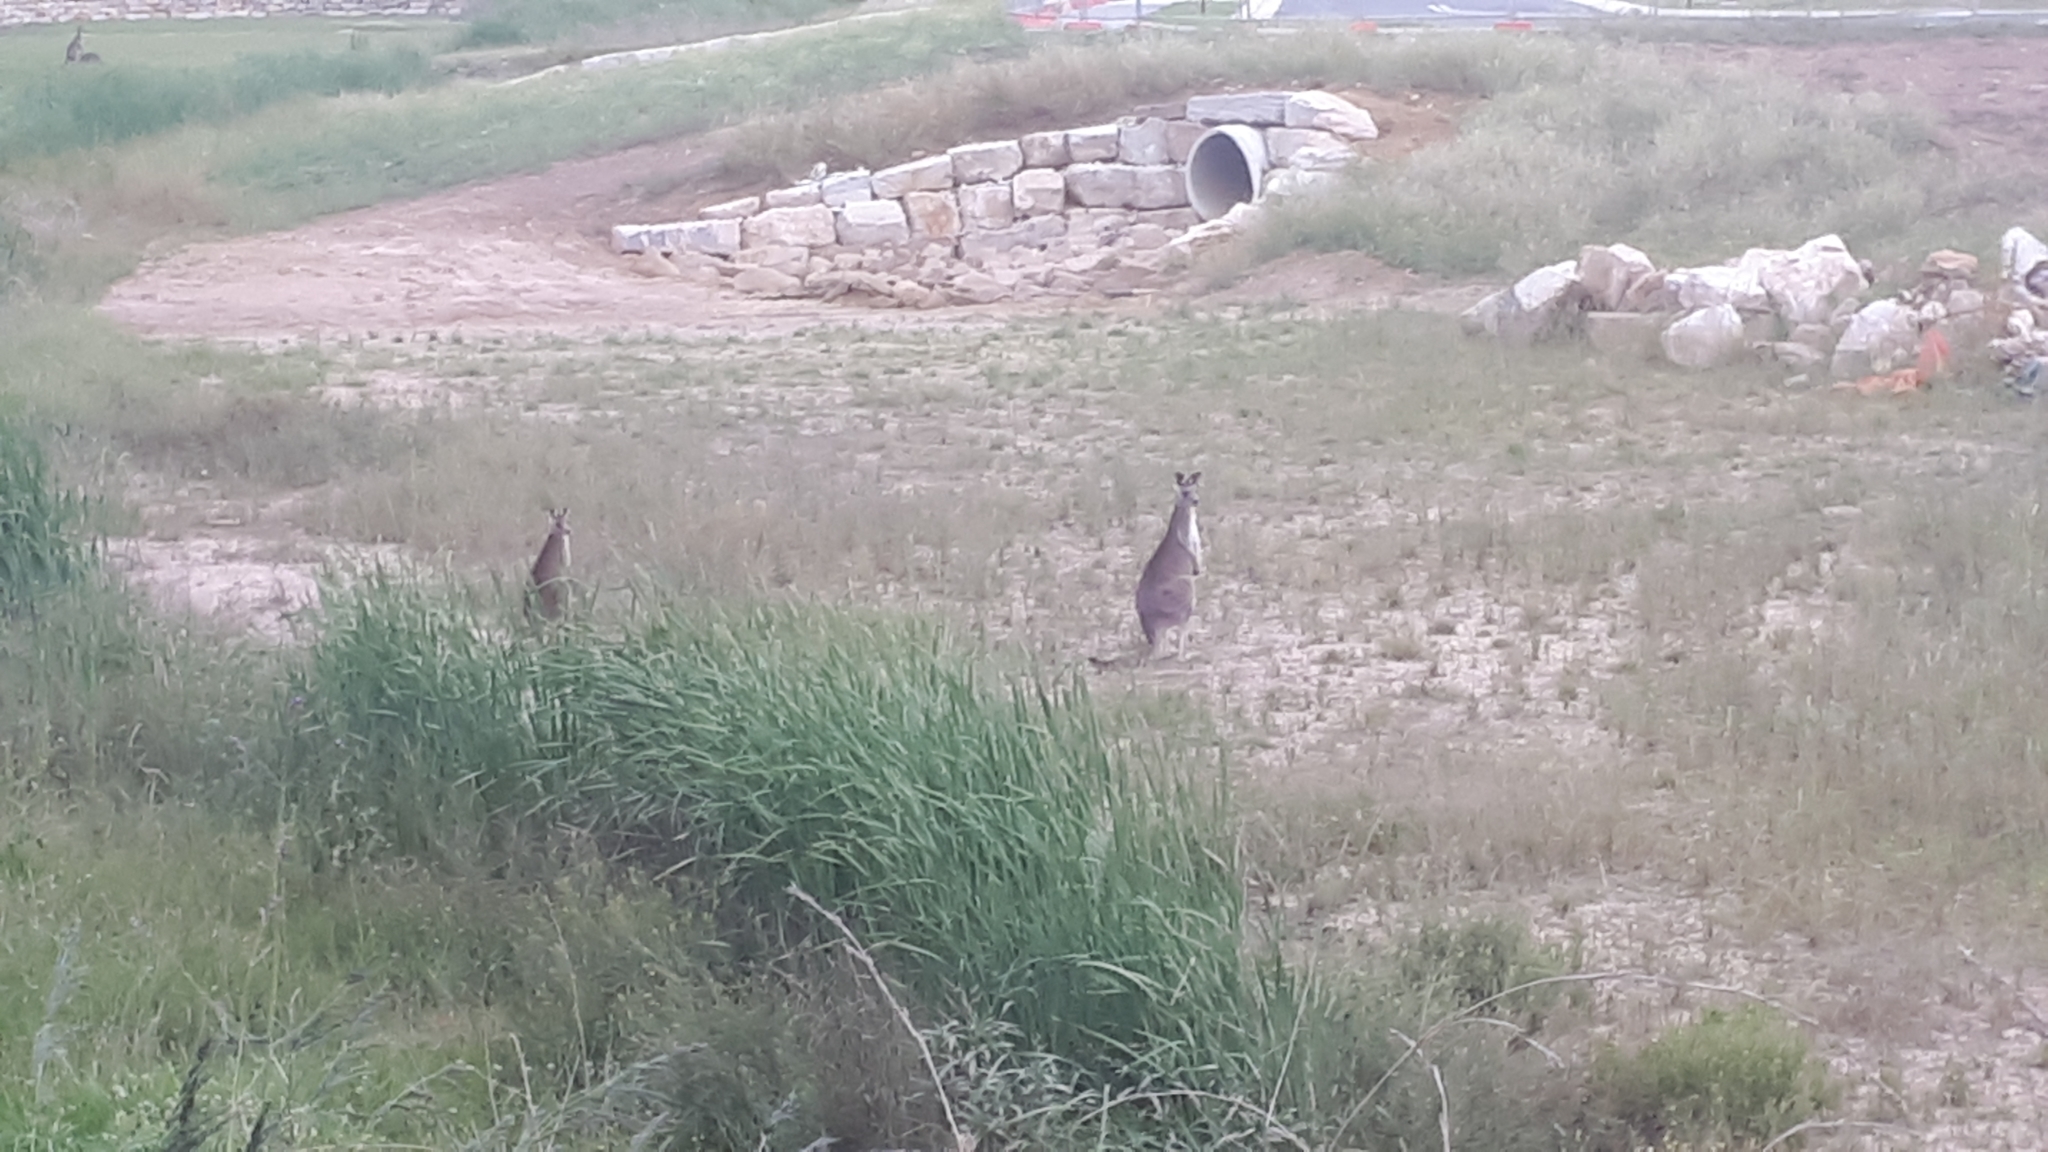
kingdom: Animalia
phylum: Chordata
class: Mammalia
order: Diprotodontia
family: Macropodidae
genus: Macropus
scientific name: Macropus giganteus
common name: Eastern grey kangaroo
